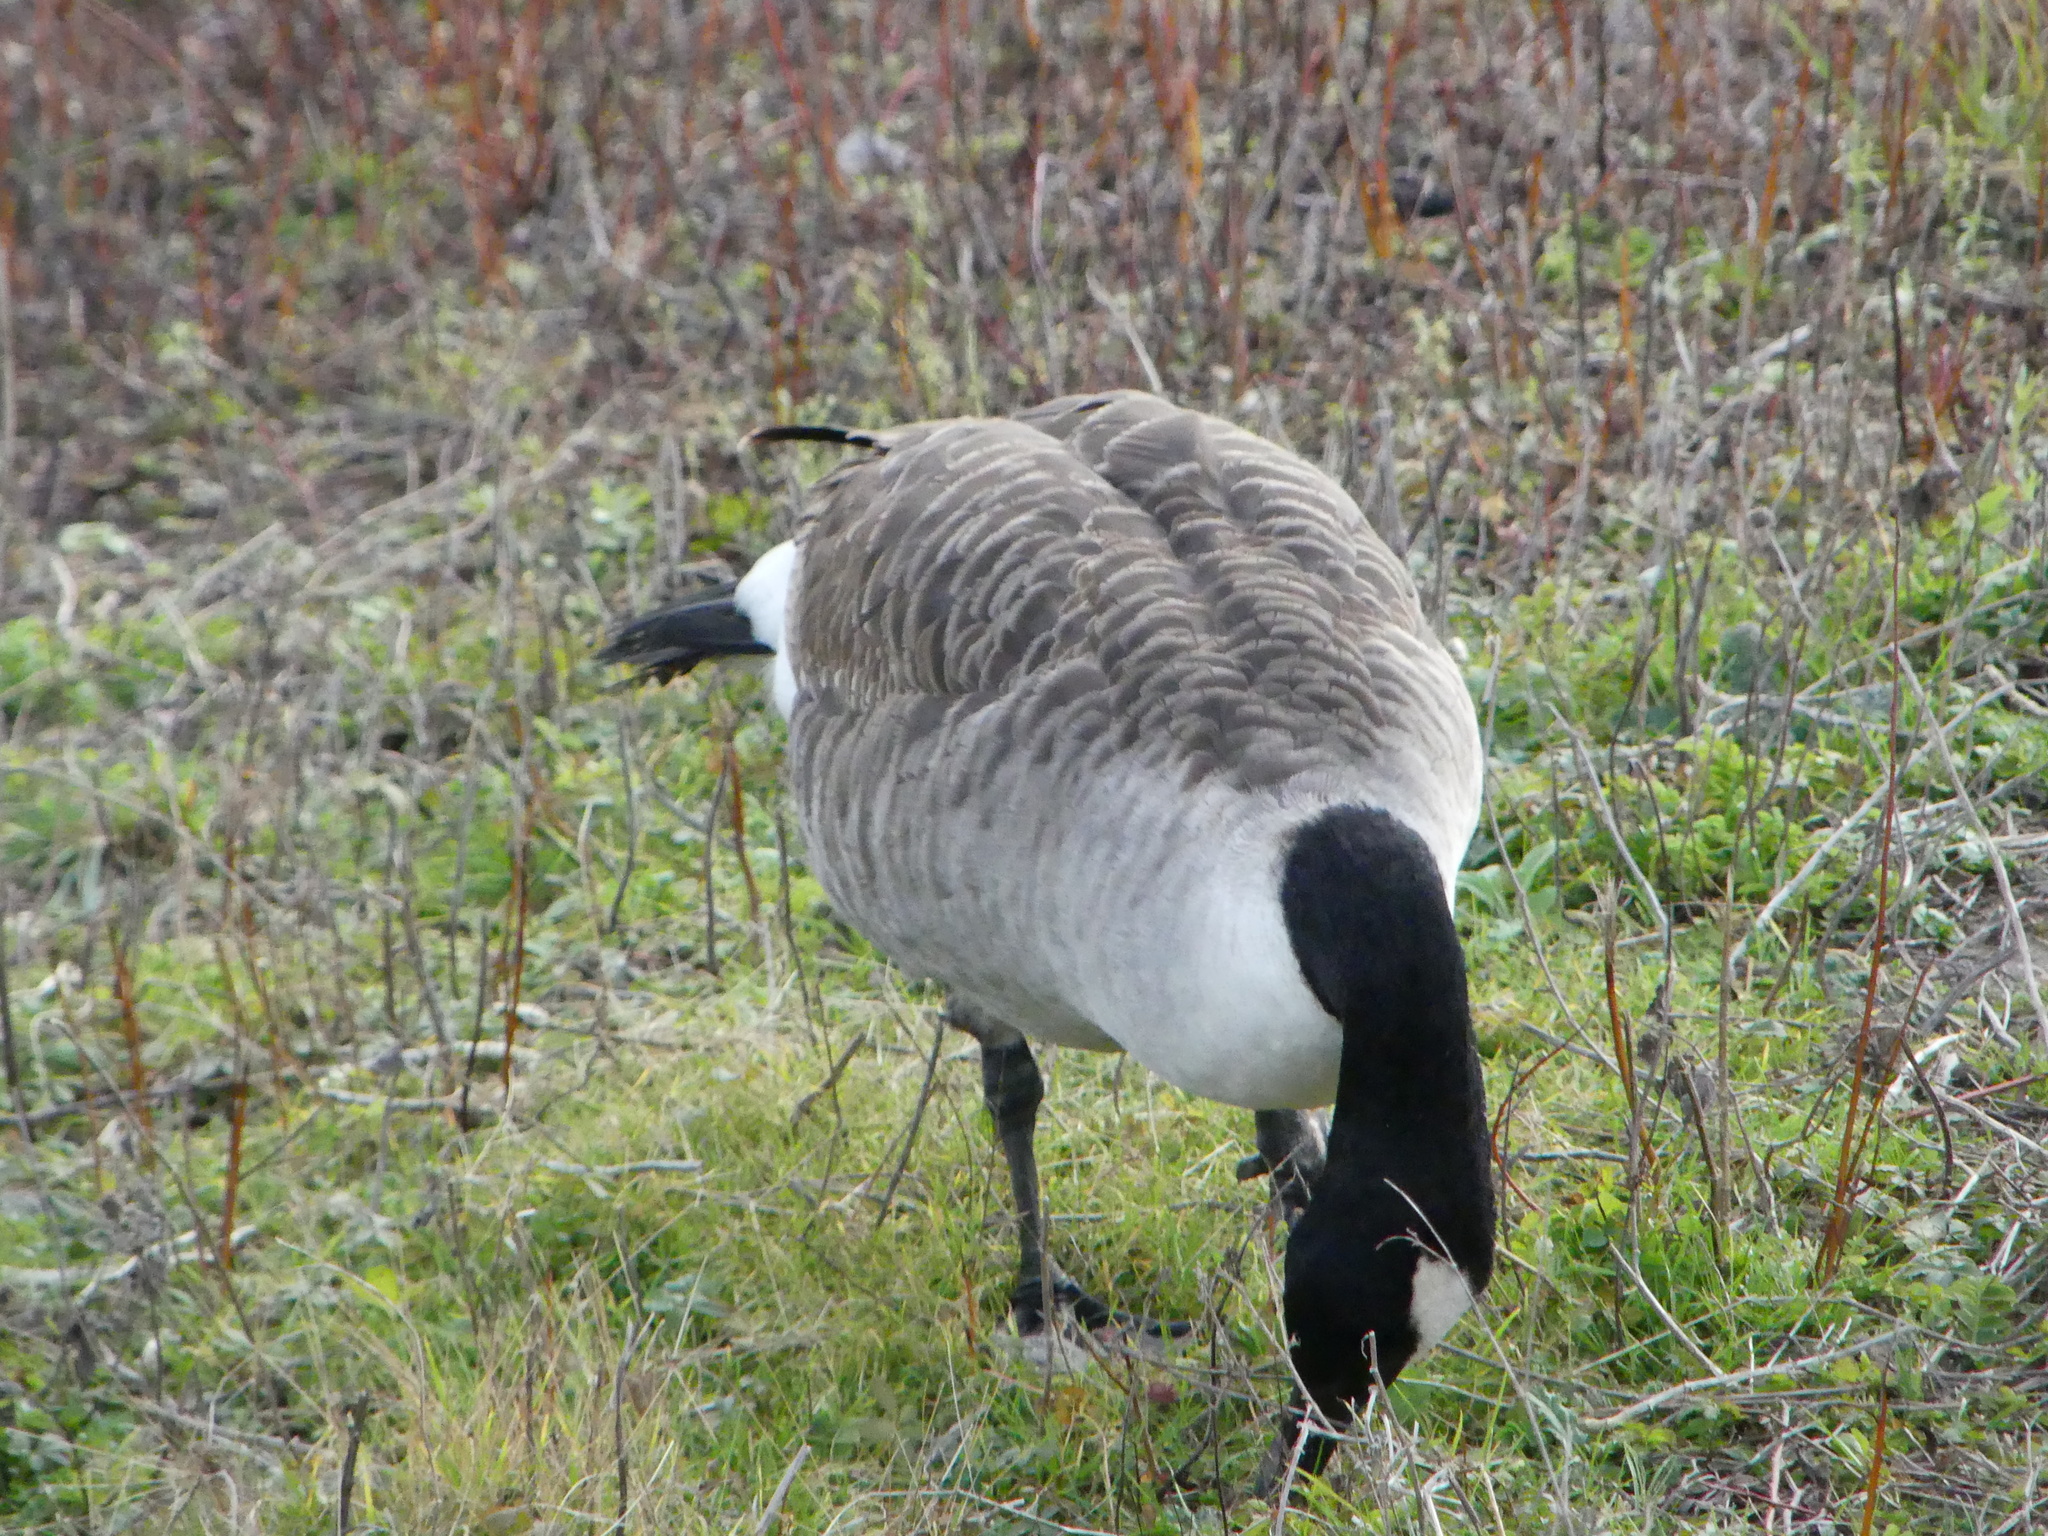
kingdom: Animalia
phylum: Chordata
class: Aves
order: Anseriformes
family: Anatidae
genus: Branta
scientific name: Branta canadensis
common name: Canada goose
